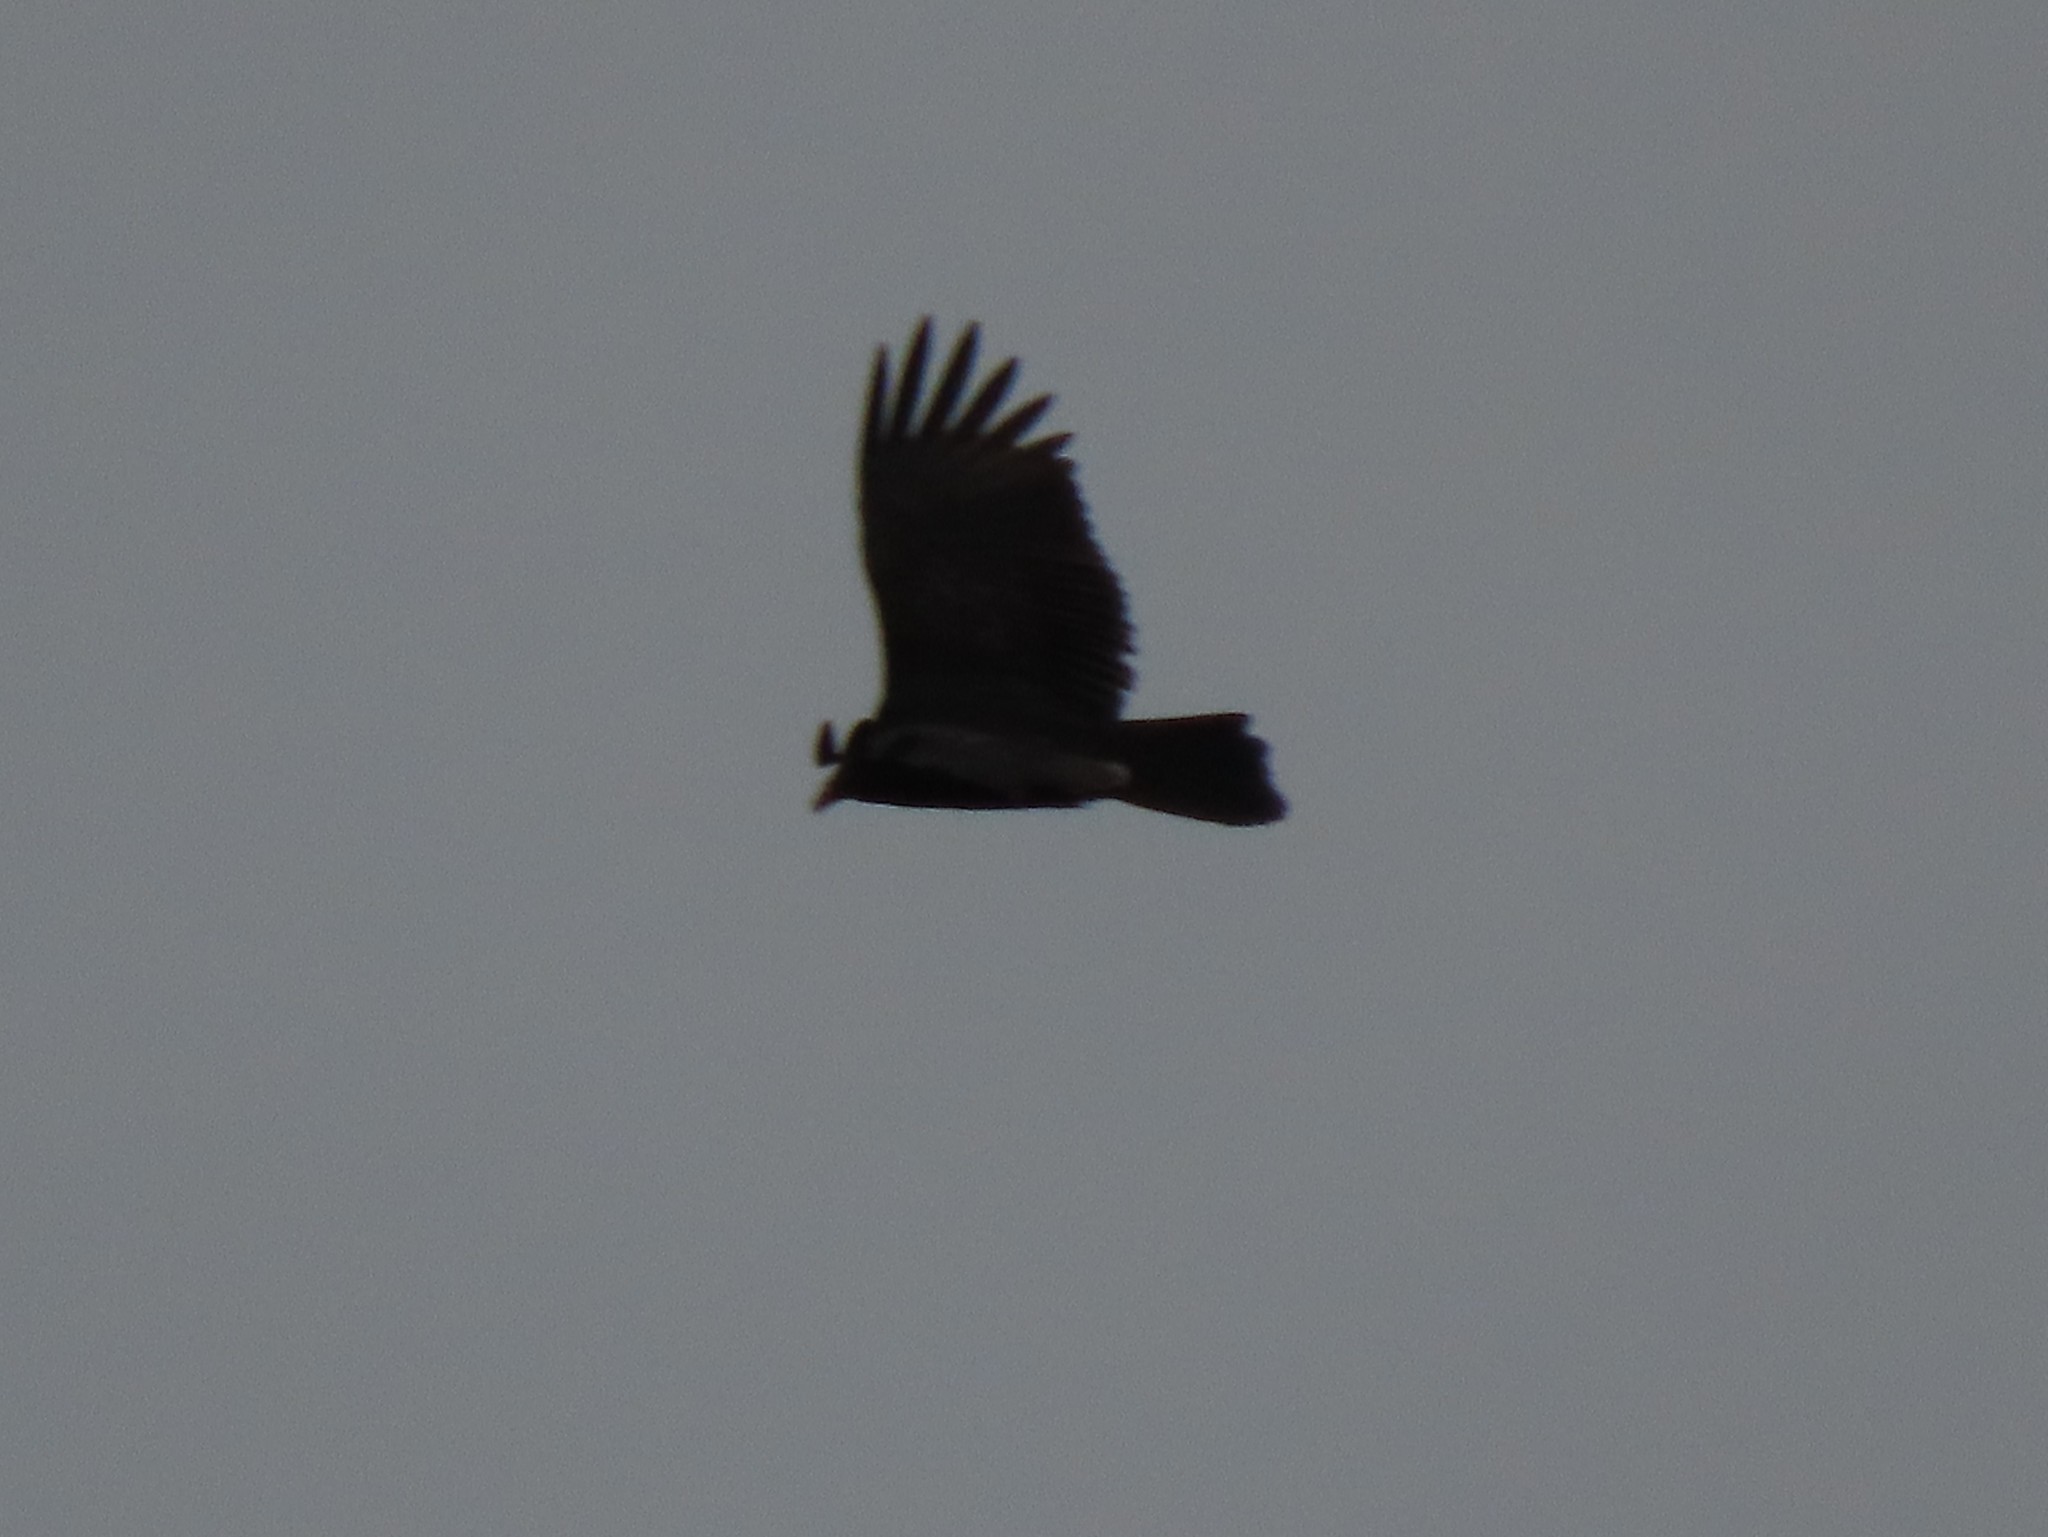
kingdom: Animalia
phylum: Chordata
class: Aves
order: Accipitriformes
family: Cathartidae
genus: Cathartes
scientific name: Cathartes aura
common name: Turkey vulture
